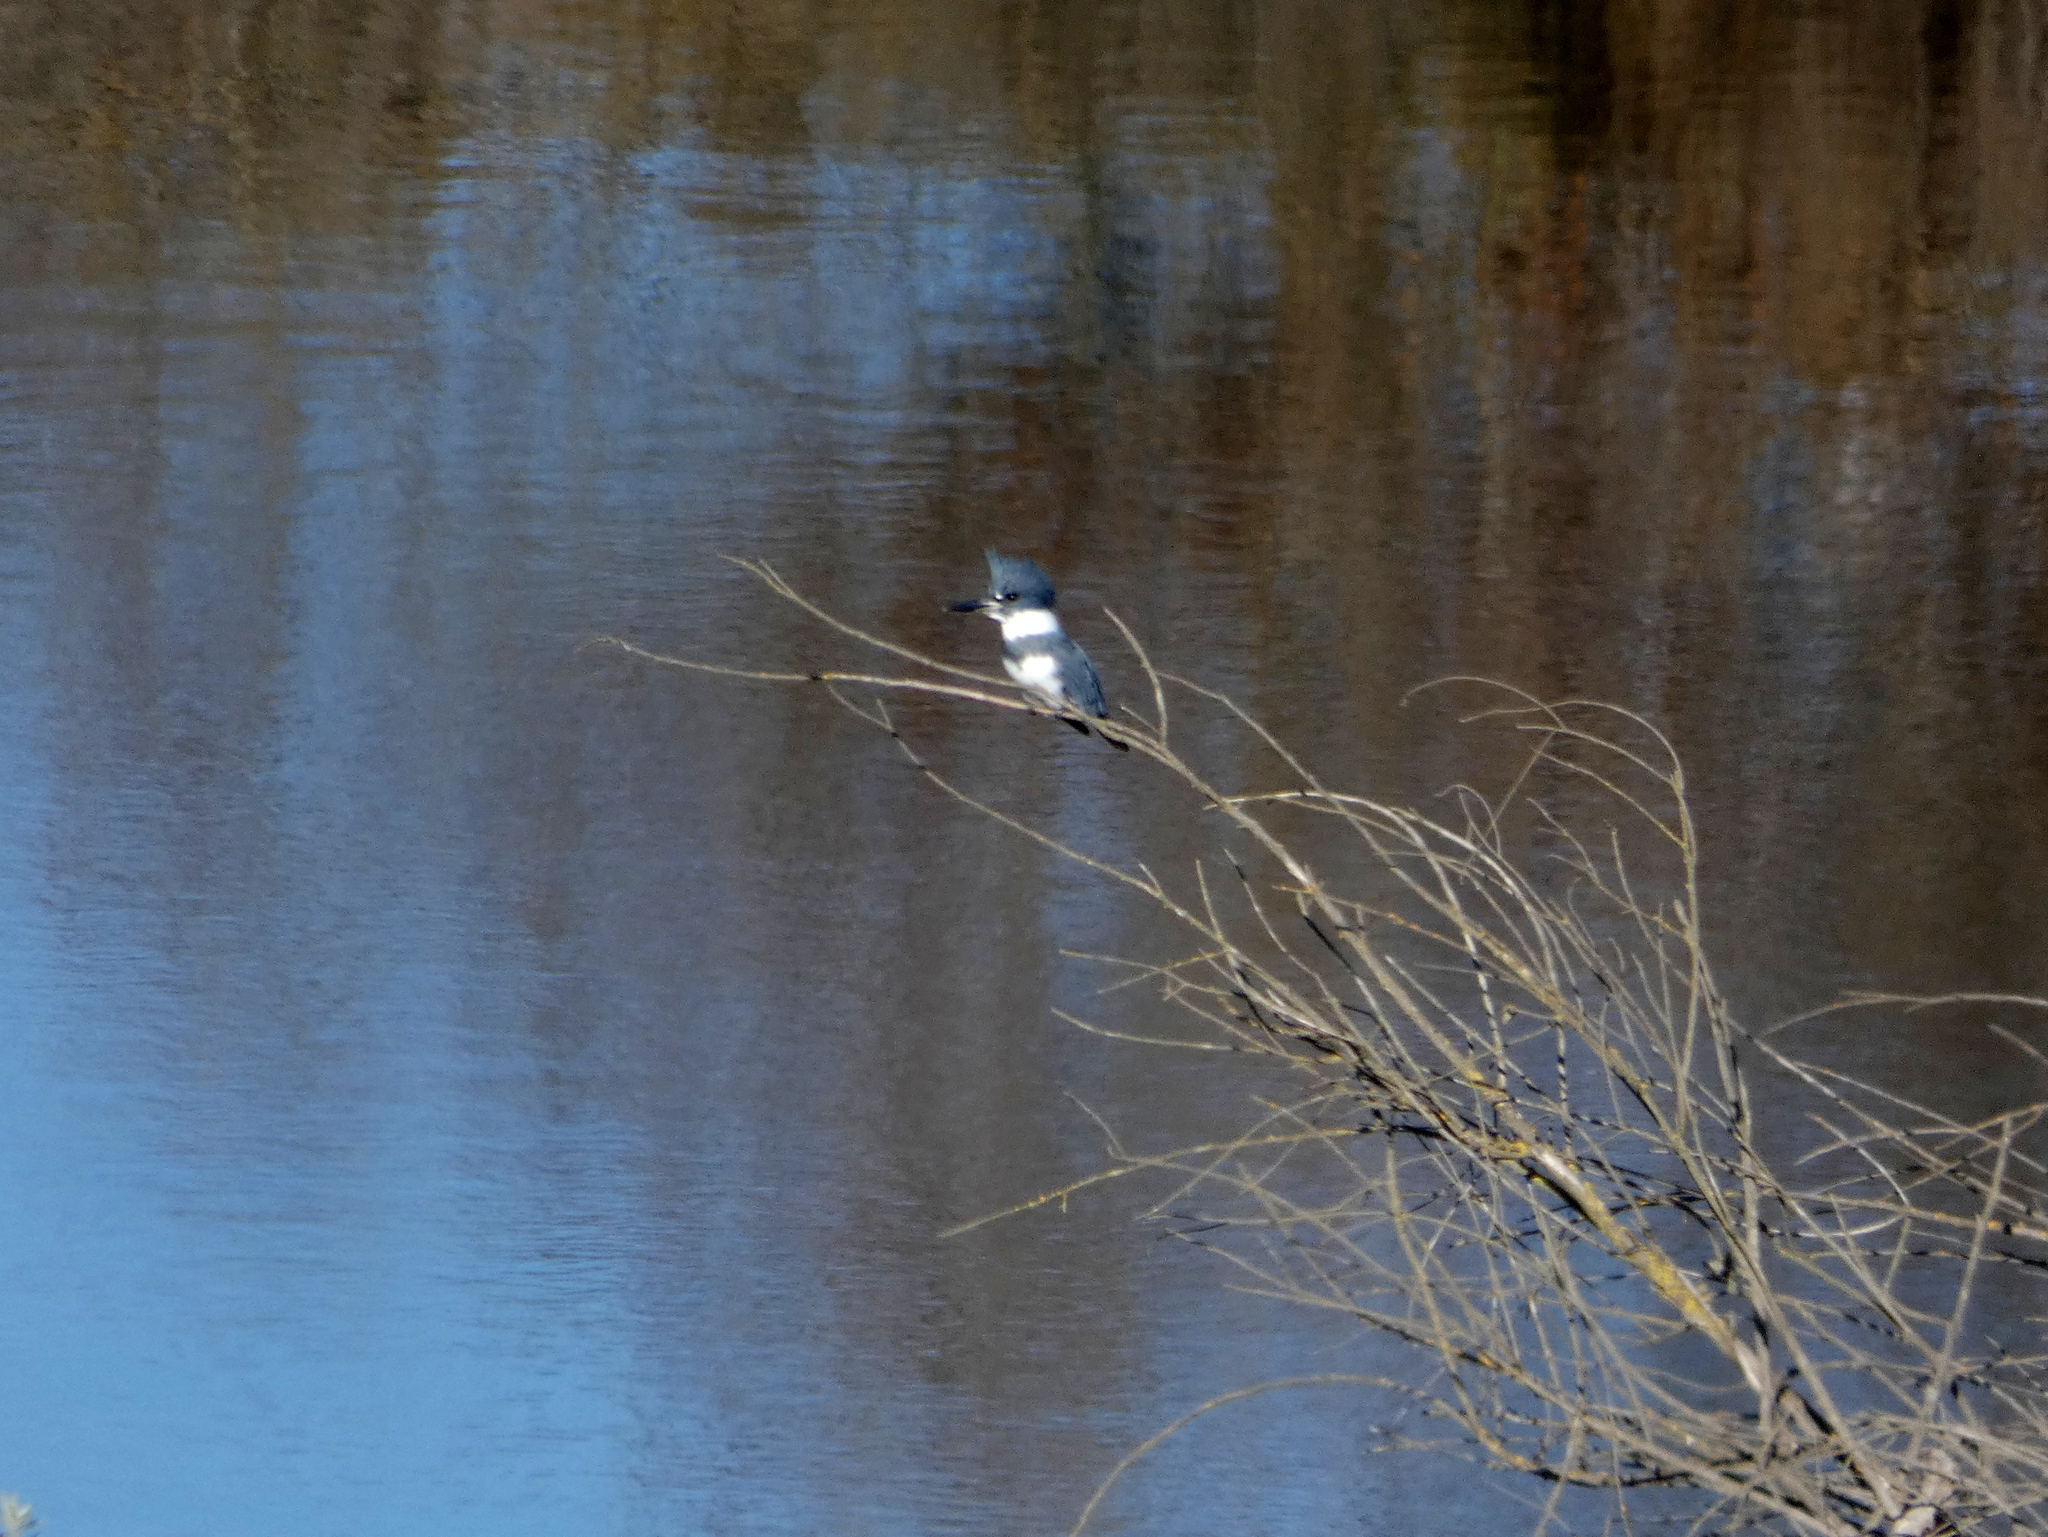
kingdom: Animalia
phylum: Chordata
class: Aves
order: Coraciiformes
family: Alcedinidae
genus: Megaceryle
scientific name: Megaceryle alcyon
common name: Belted kingfisher
